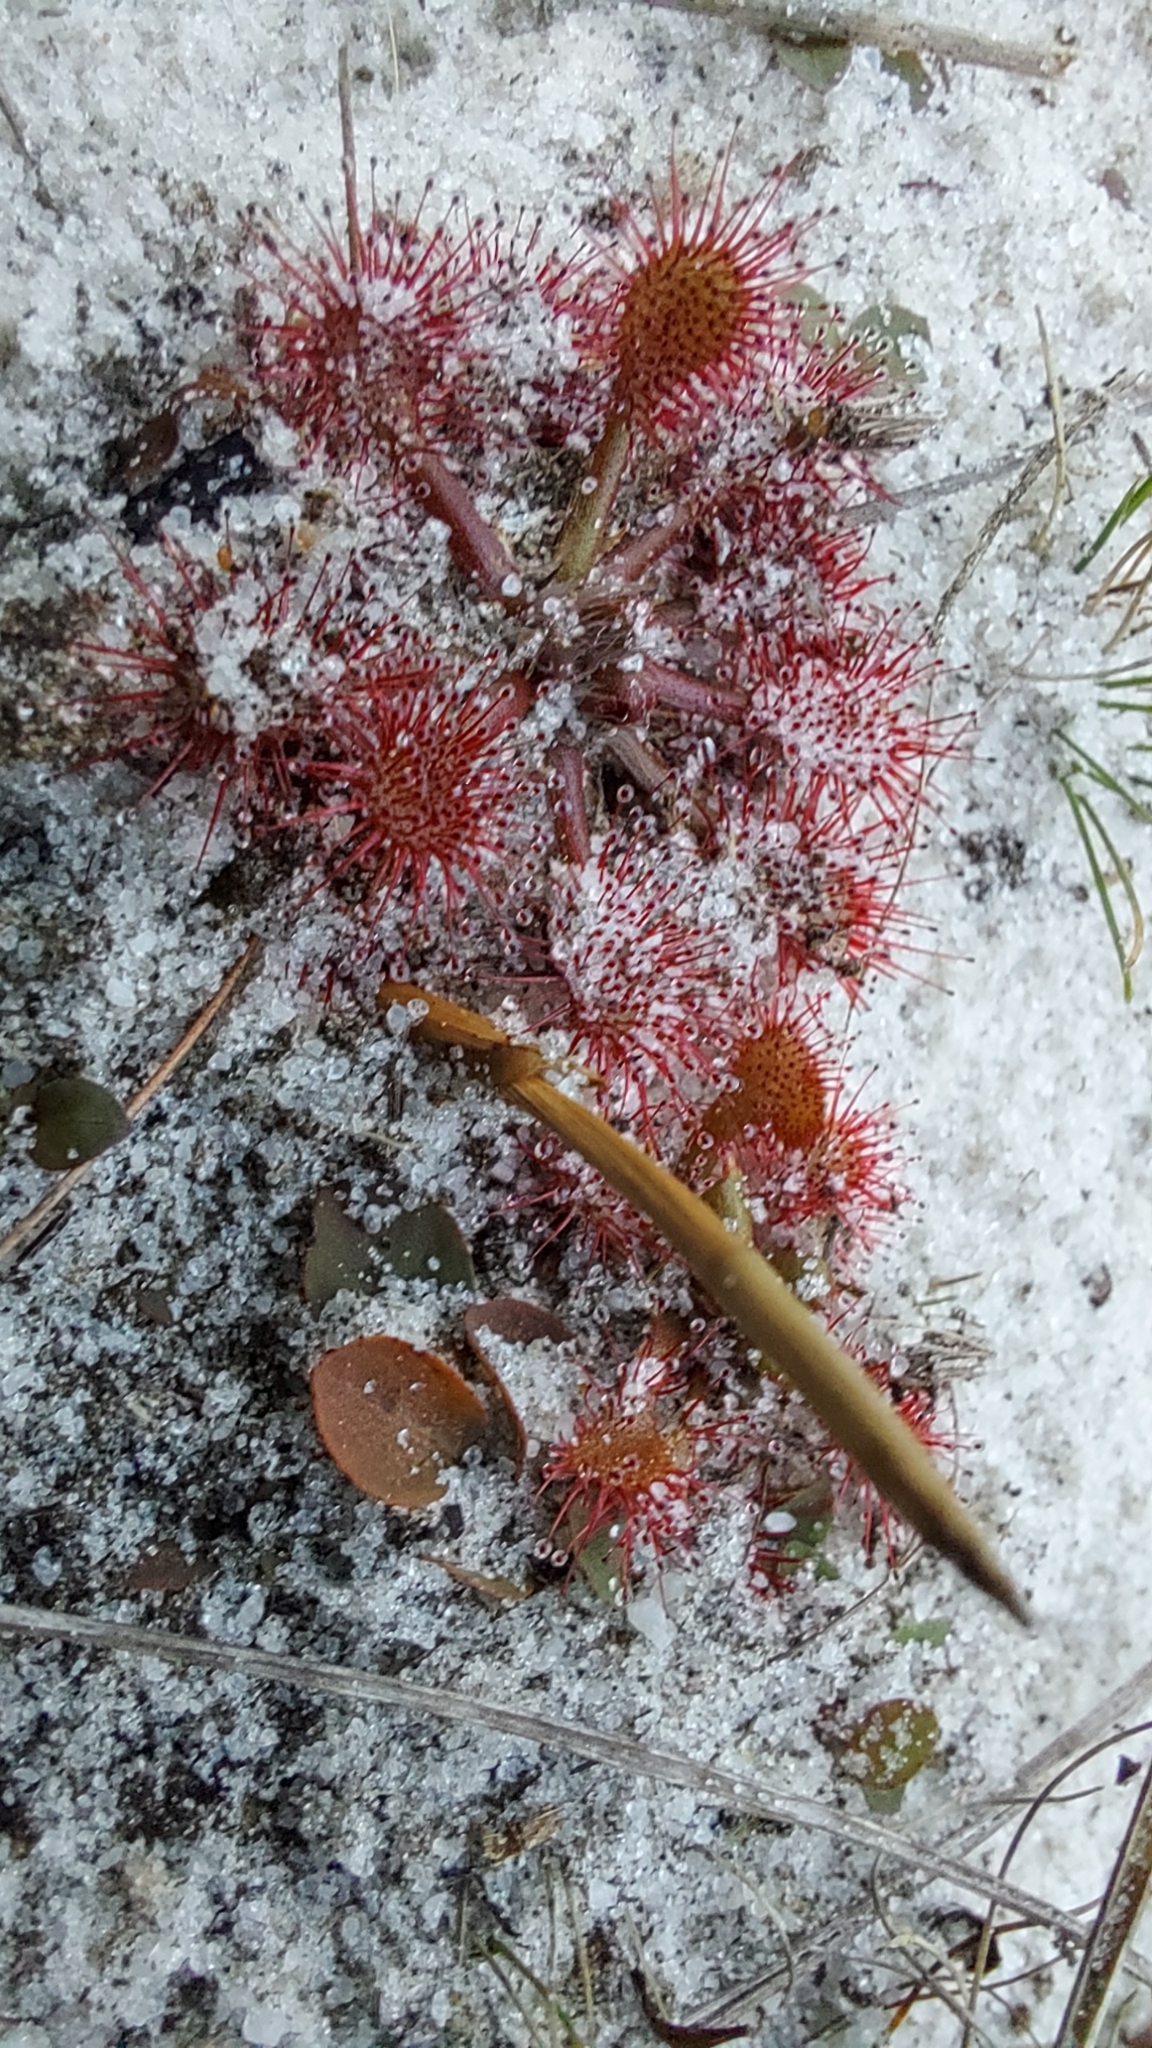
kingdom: Plantae
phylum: Tracheophyta
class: Magnoliopsida
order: Caryophyllales
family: Droseraceae
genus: Drosera
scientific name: Drosera capillaris
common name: Pink sundew
